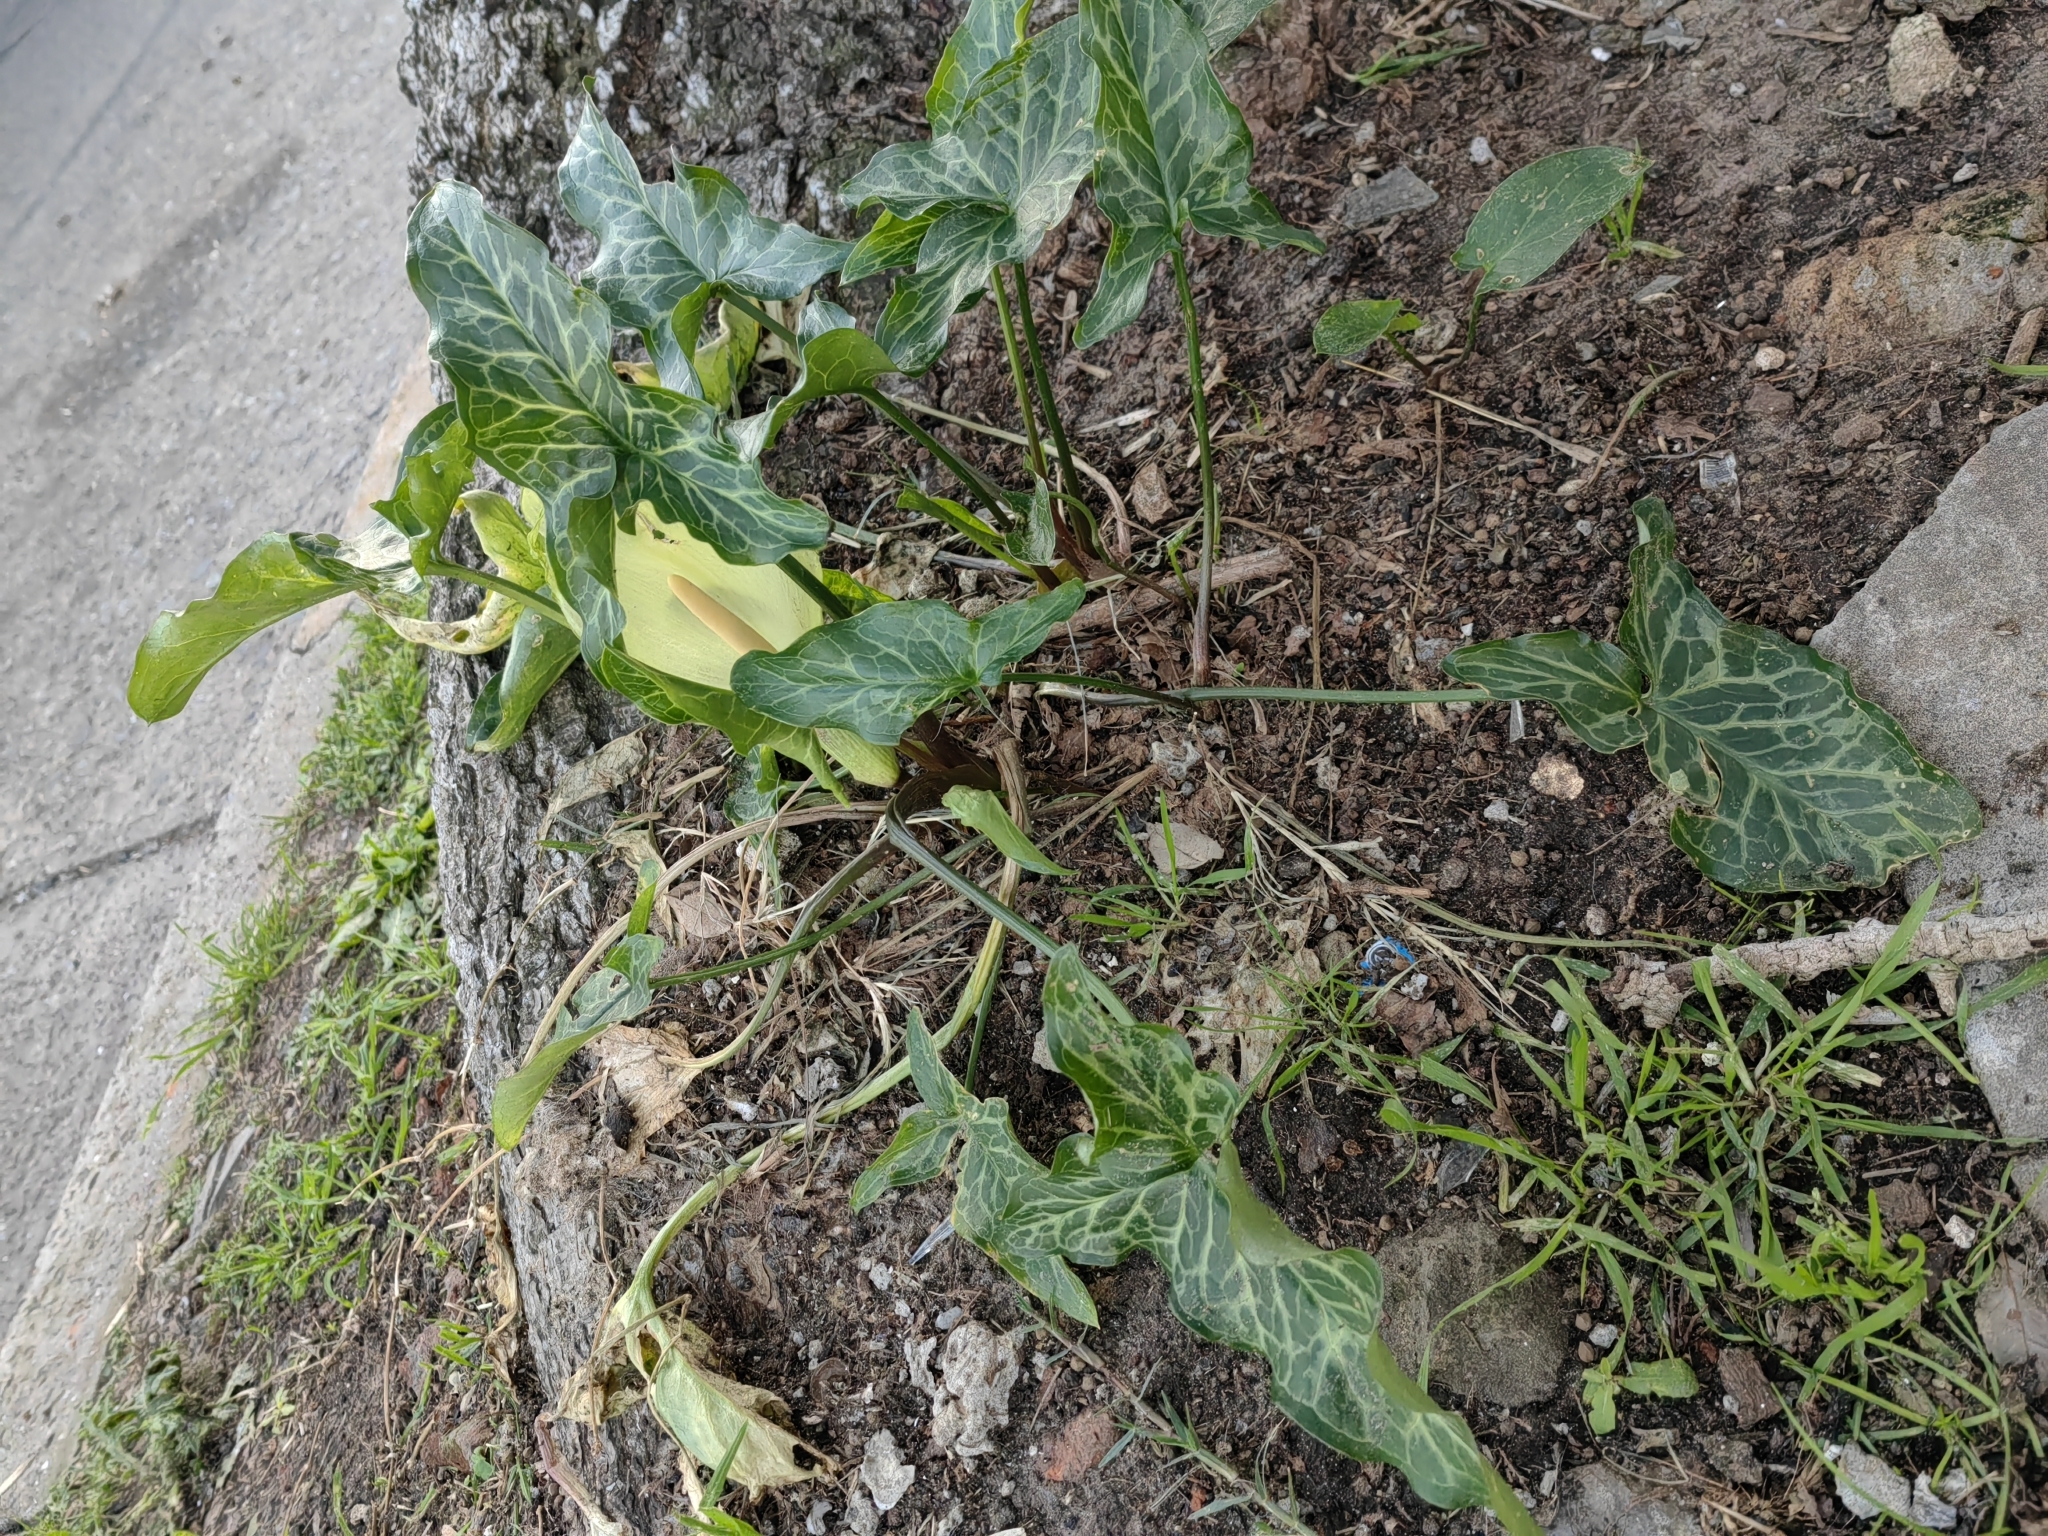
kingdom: Plantae
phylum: Tracheophyta
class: Liliopsida
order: Alismatales
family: Araceae
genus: Arum
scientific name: Arum italicum
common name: Italian lords-and-ladies
